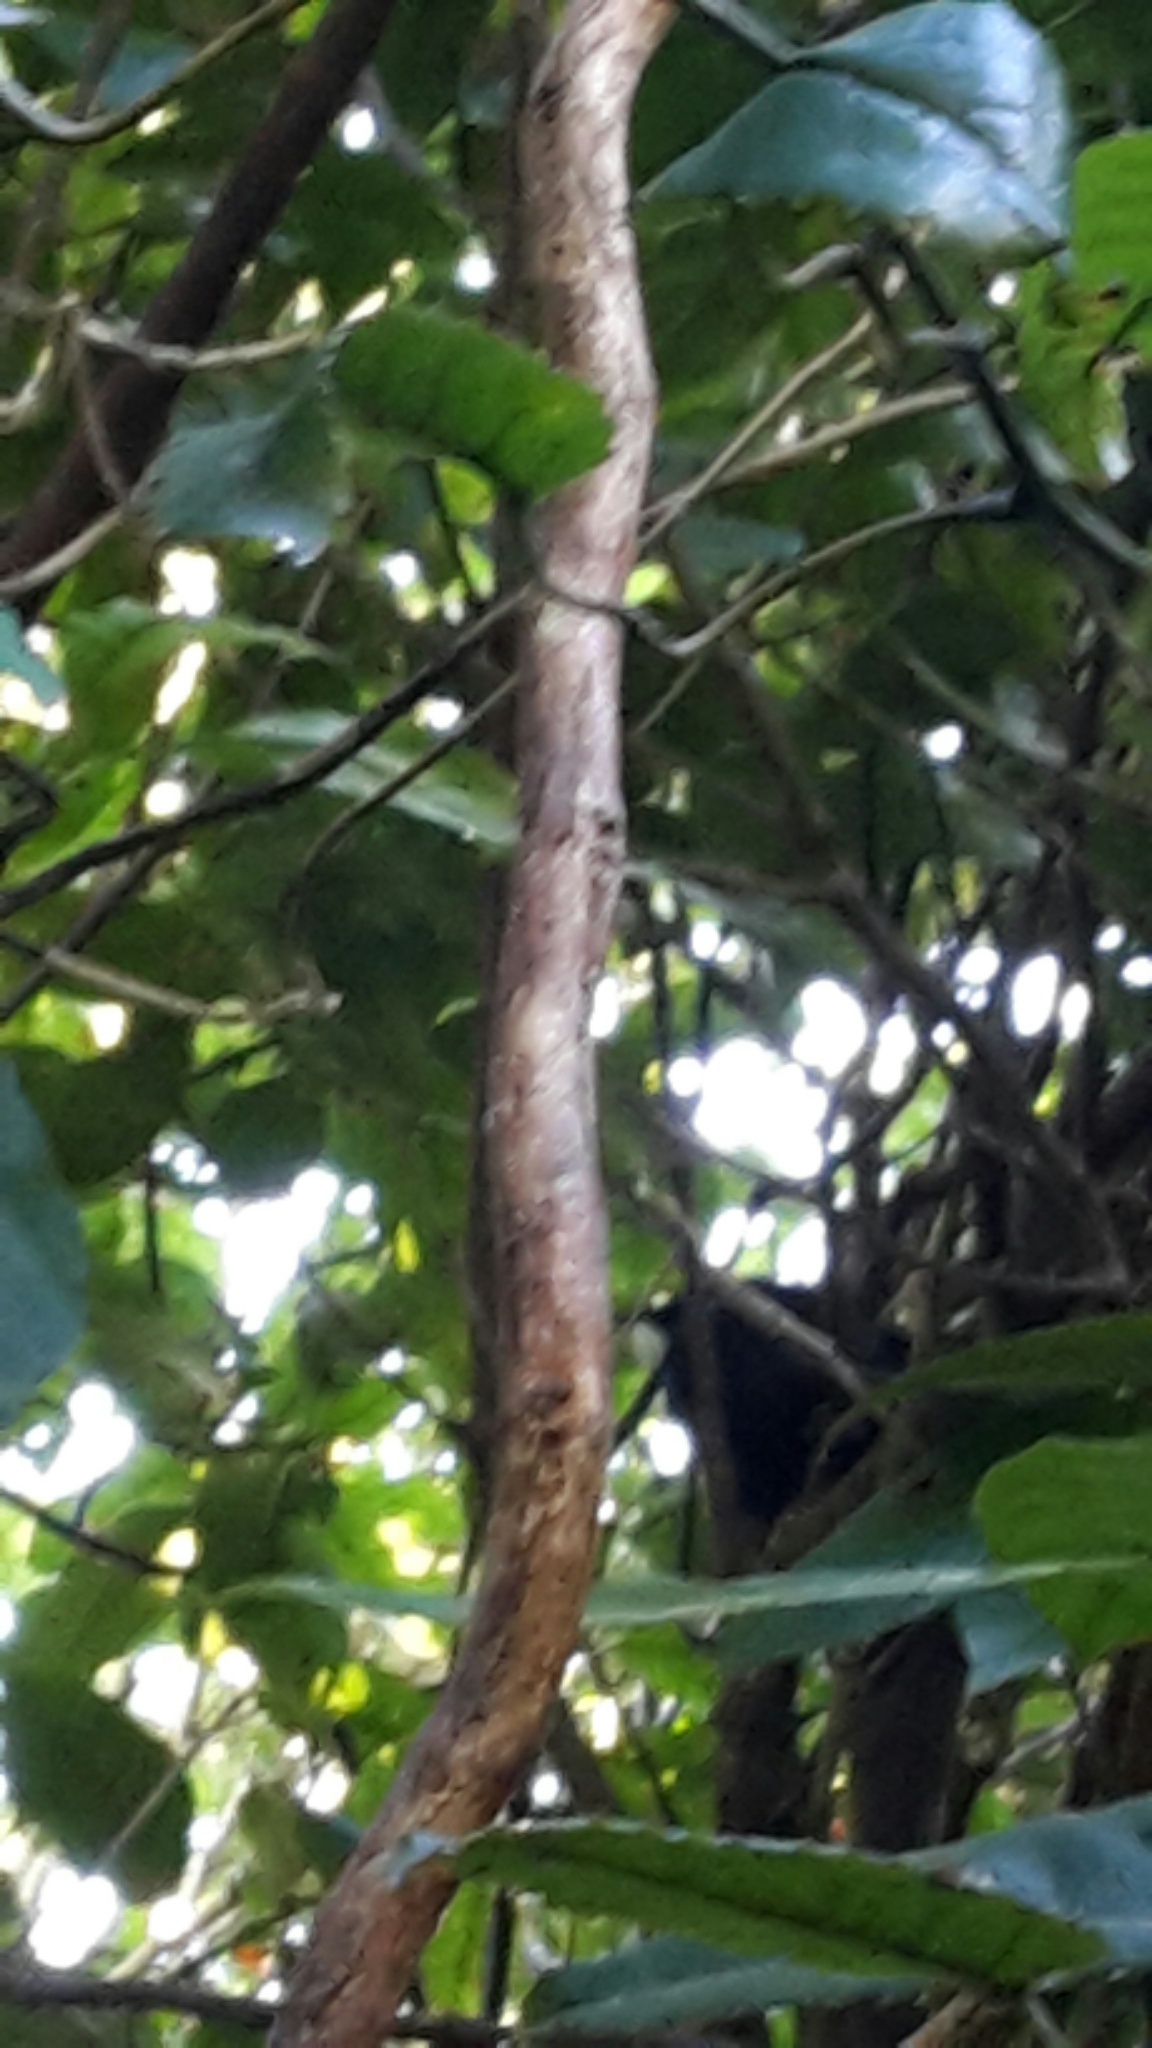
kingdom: Animalia
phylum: Chordata
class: Aves
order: Passeriformes
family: Meliphagidae
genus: Prosthemadera
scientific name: Prosthemadera novaeseelandiae
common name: Tui
